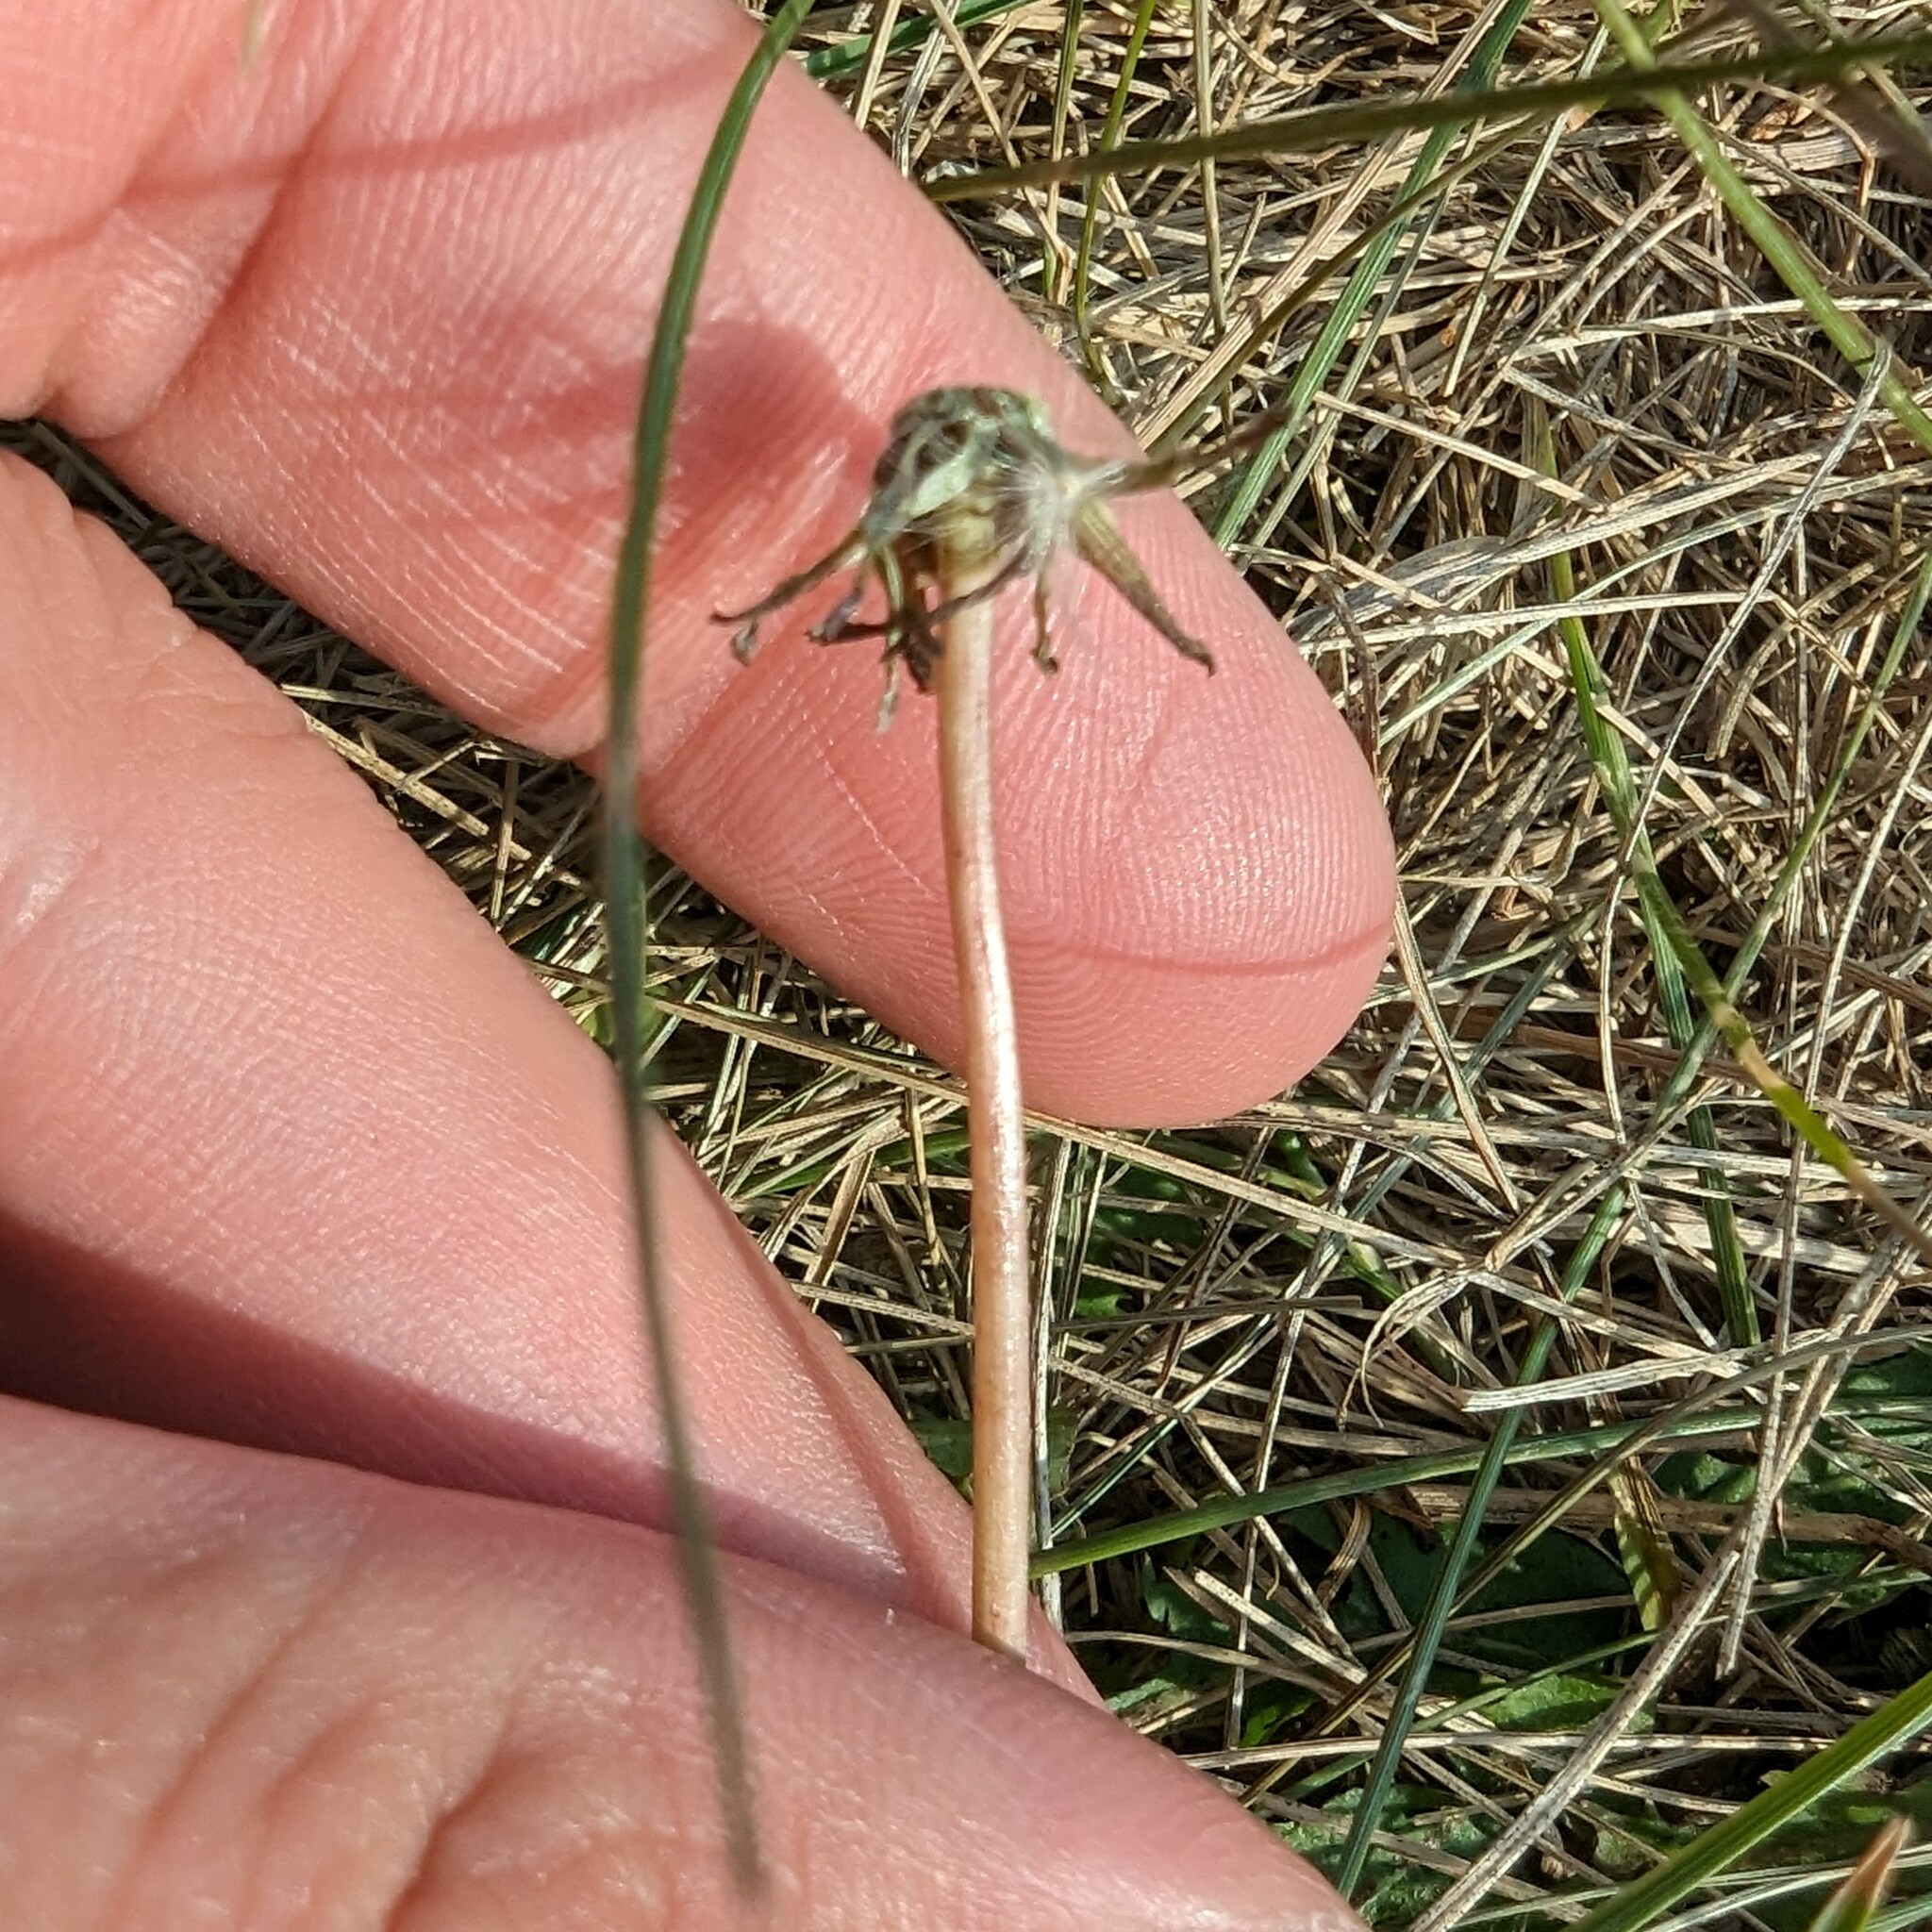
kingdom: Plantae
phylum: Tracheophyta
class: Magnoliopsida
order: Asterales
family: Asteraceae
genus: Taraxacum
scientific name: Taraxacum officinale
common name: Common dandelion
